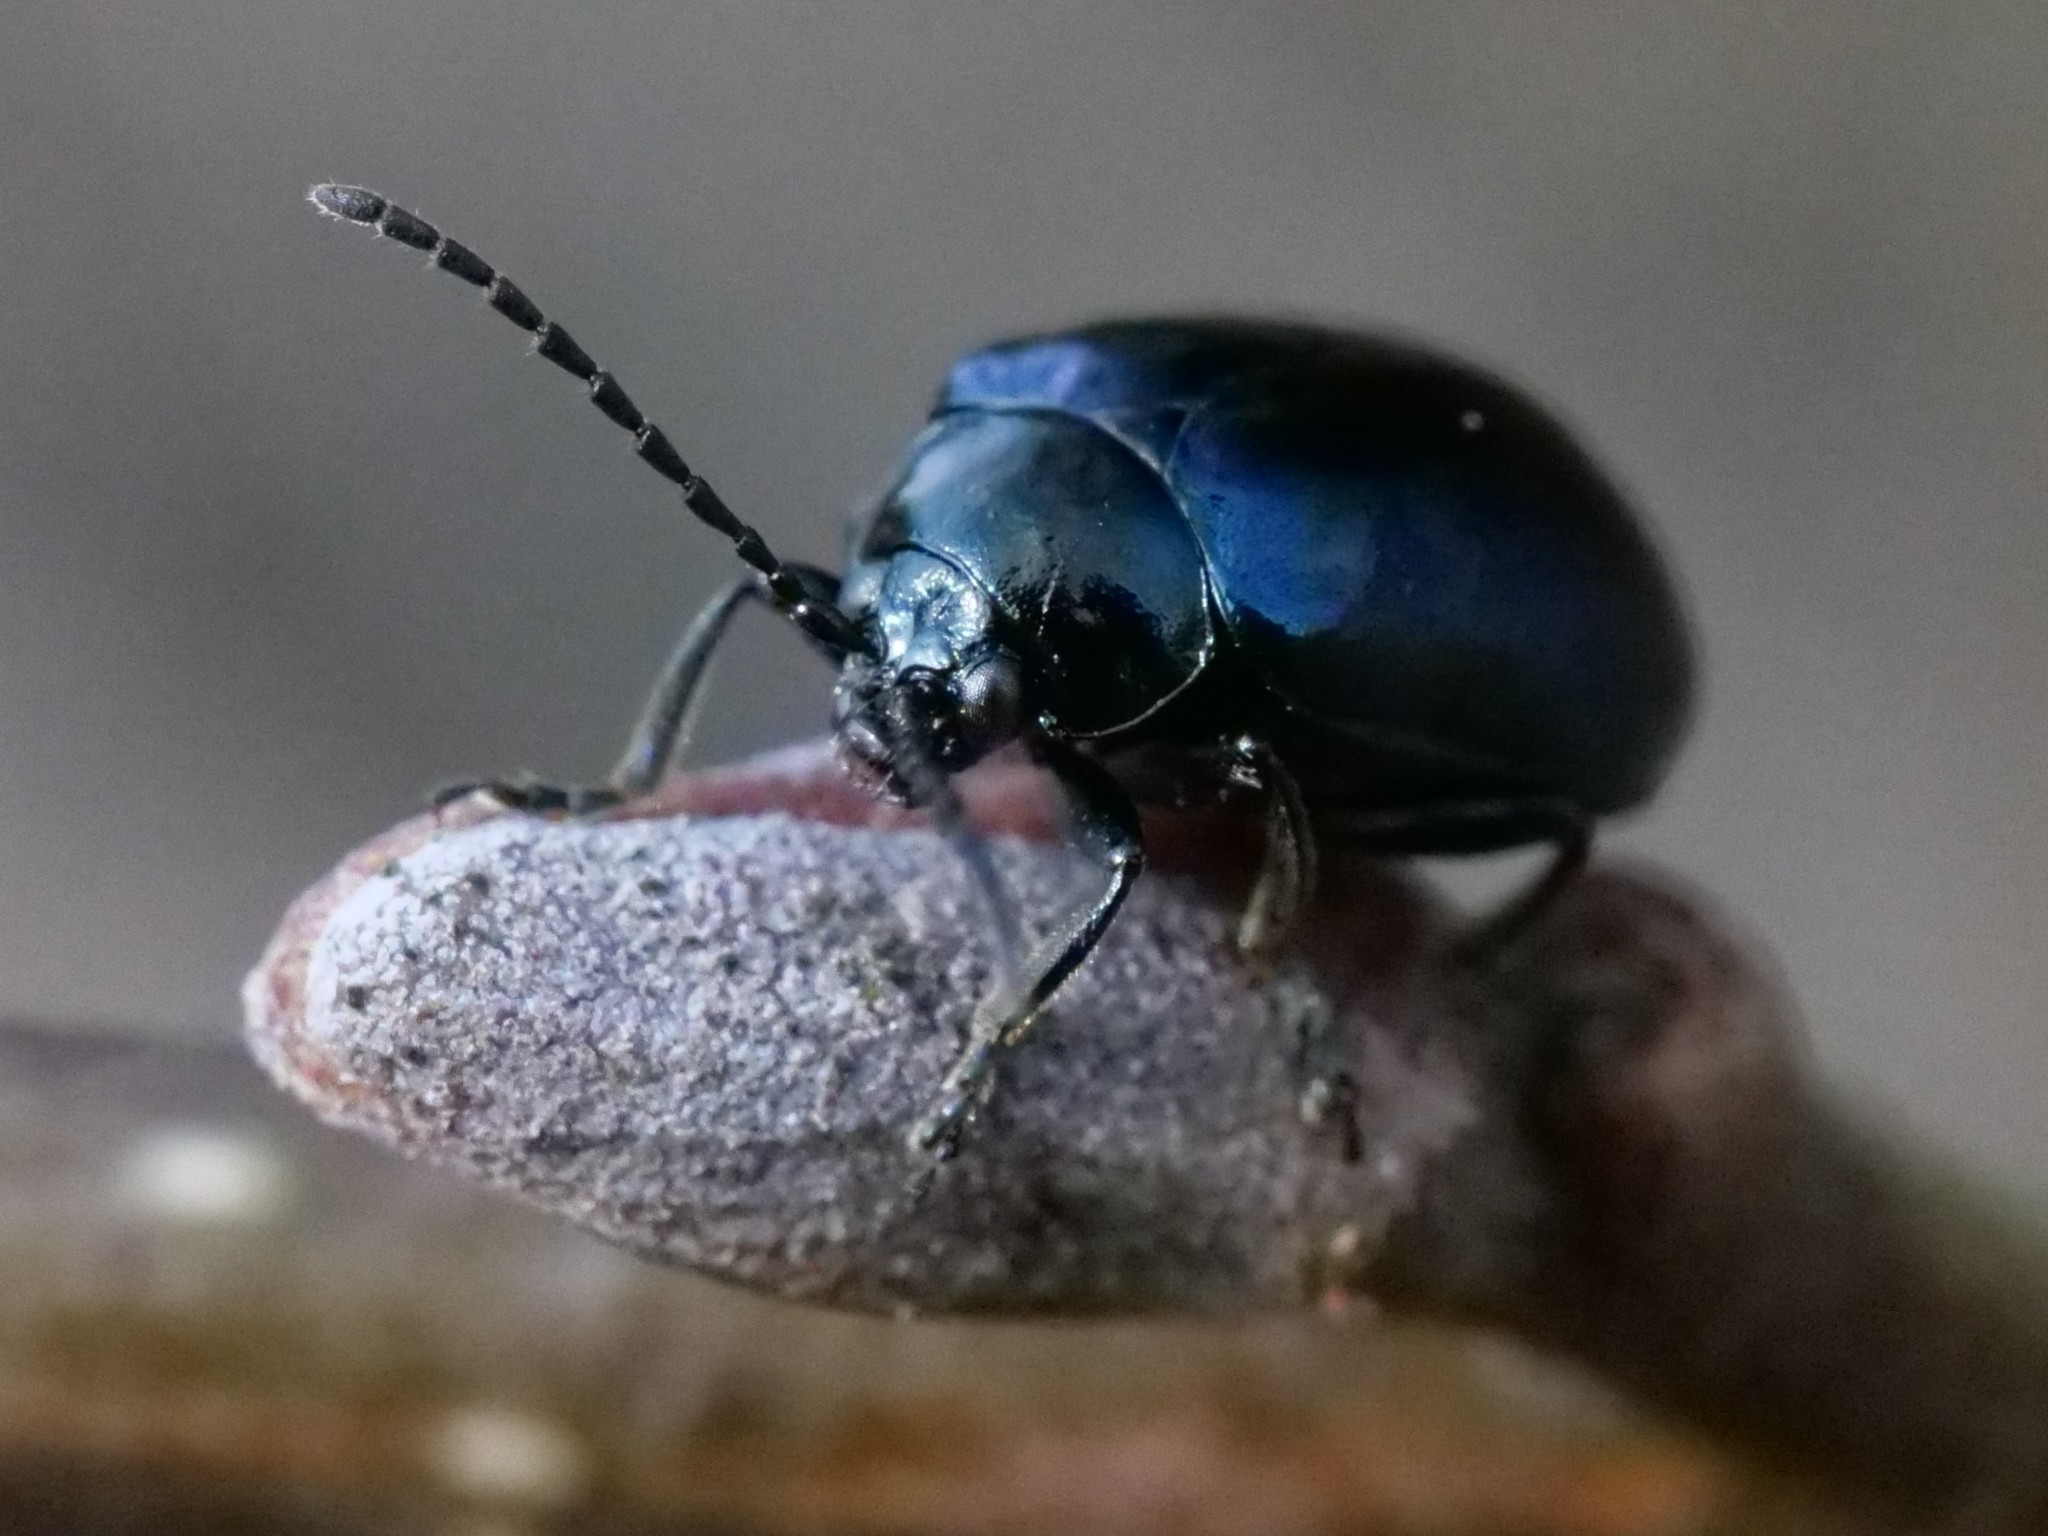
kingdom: Animalia
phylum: Arthropoda
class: Insecta
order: Coleoptera
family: Chrysomelidae
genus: Agelastica
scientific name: Agelastica alni
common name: Alder leaf beetle
